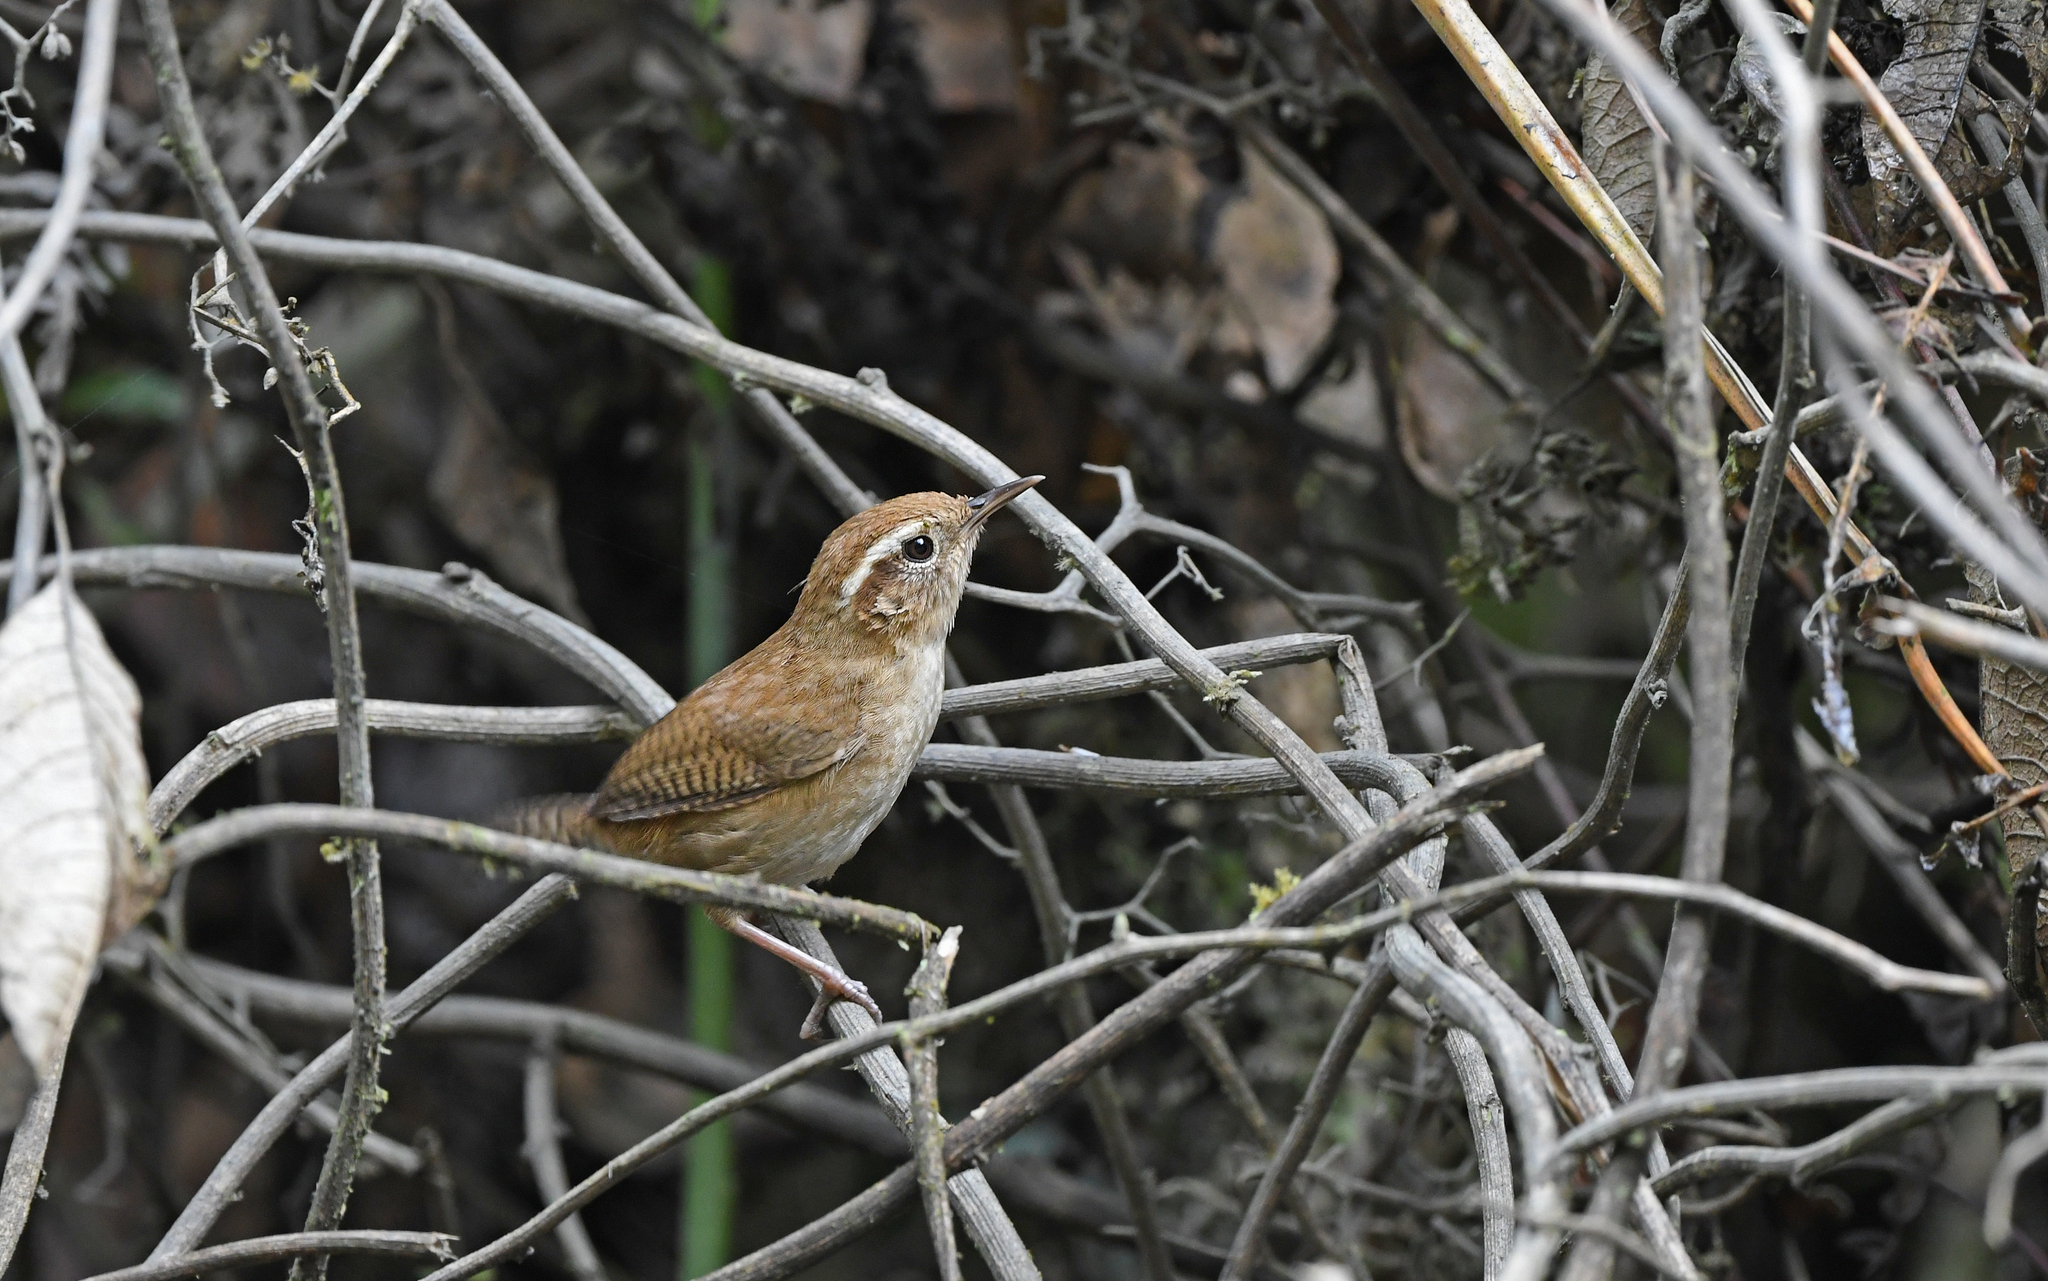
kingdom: Animalia
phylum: Chordata
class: Aves
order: Passeriformes
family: Troglodytidae
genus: Troglodytes
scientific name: Troglodytes solstitialis
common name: Mountain wren
